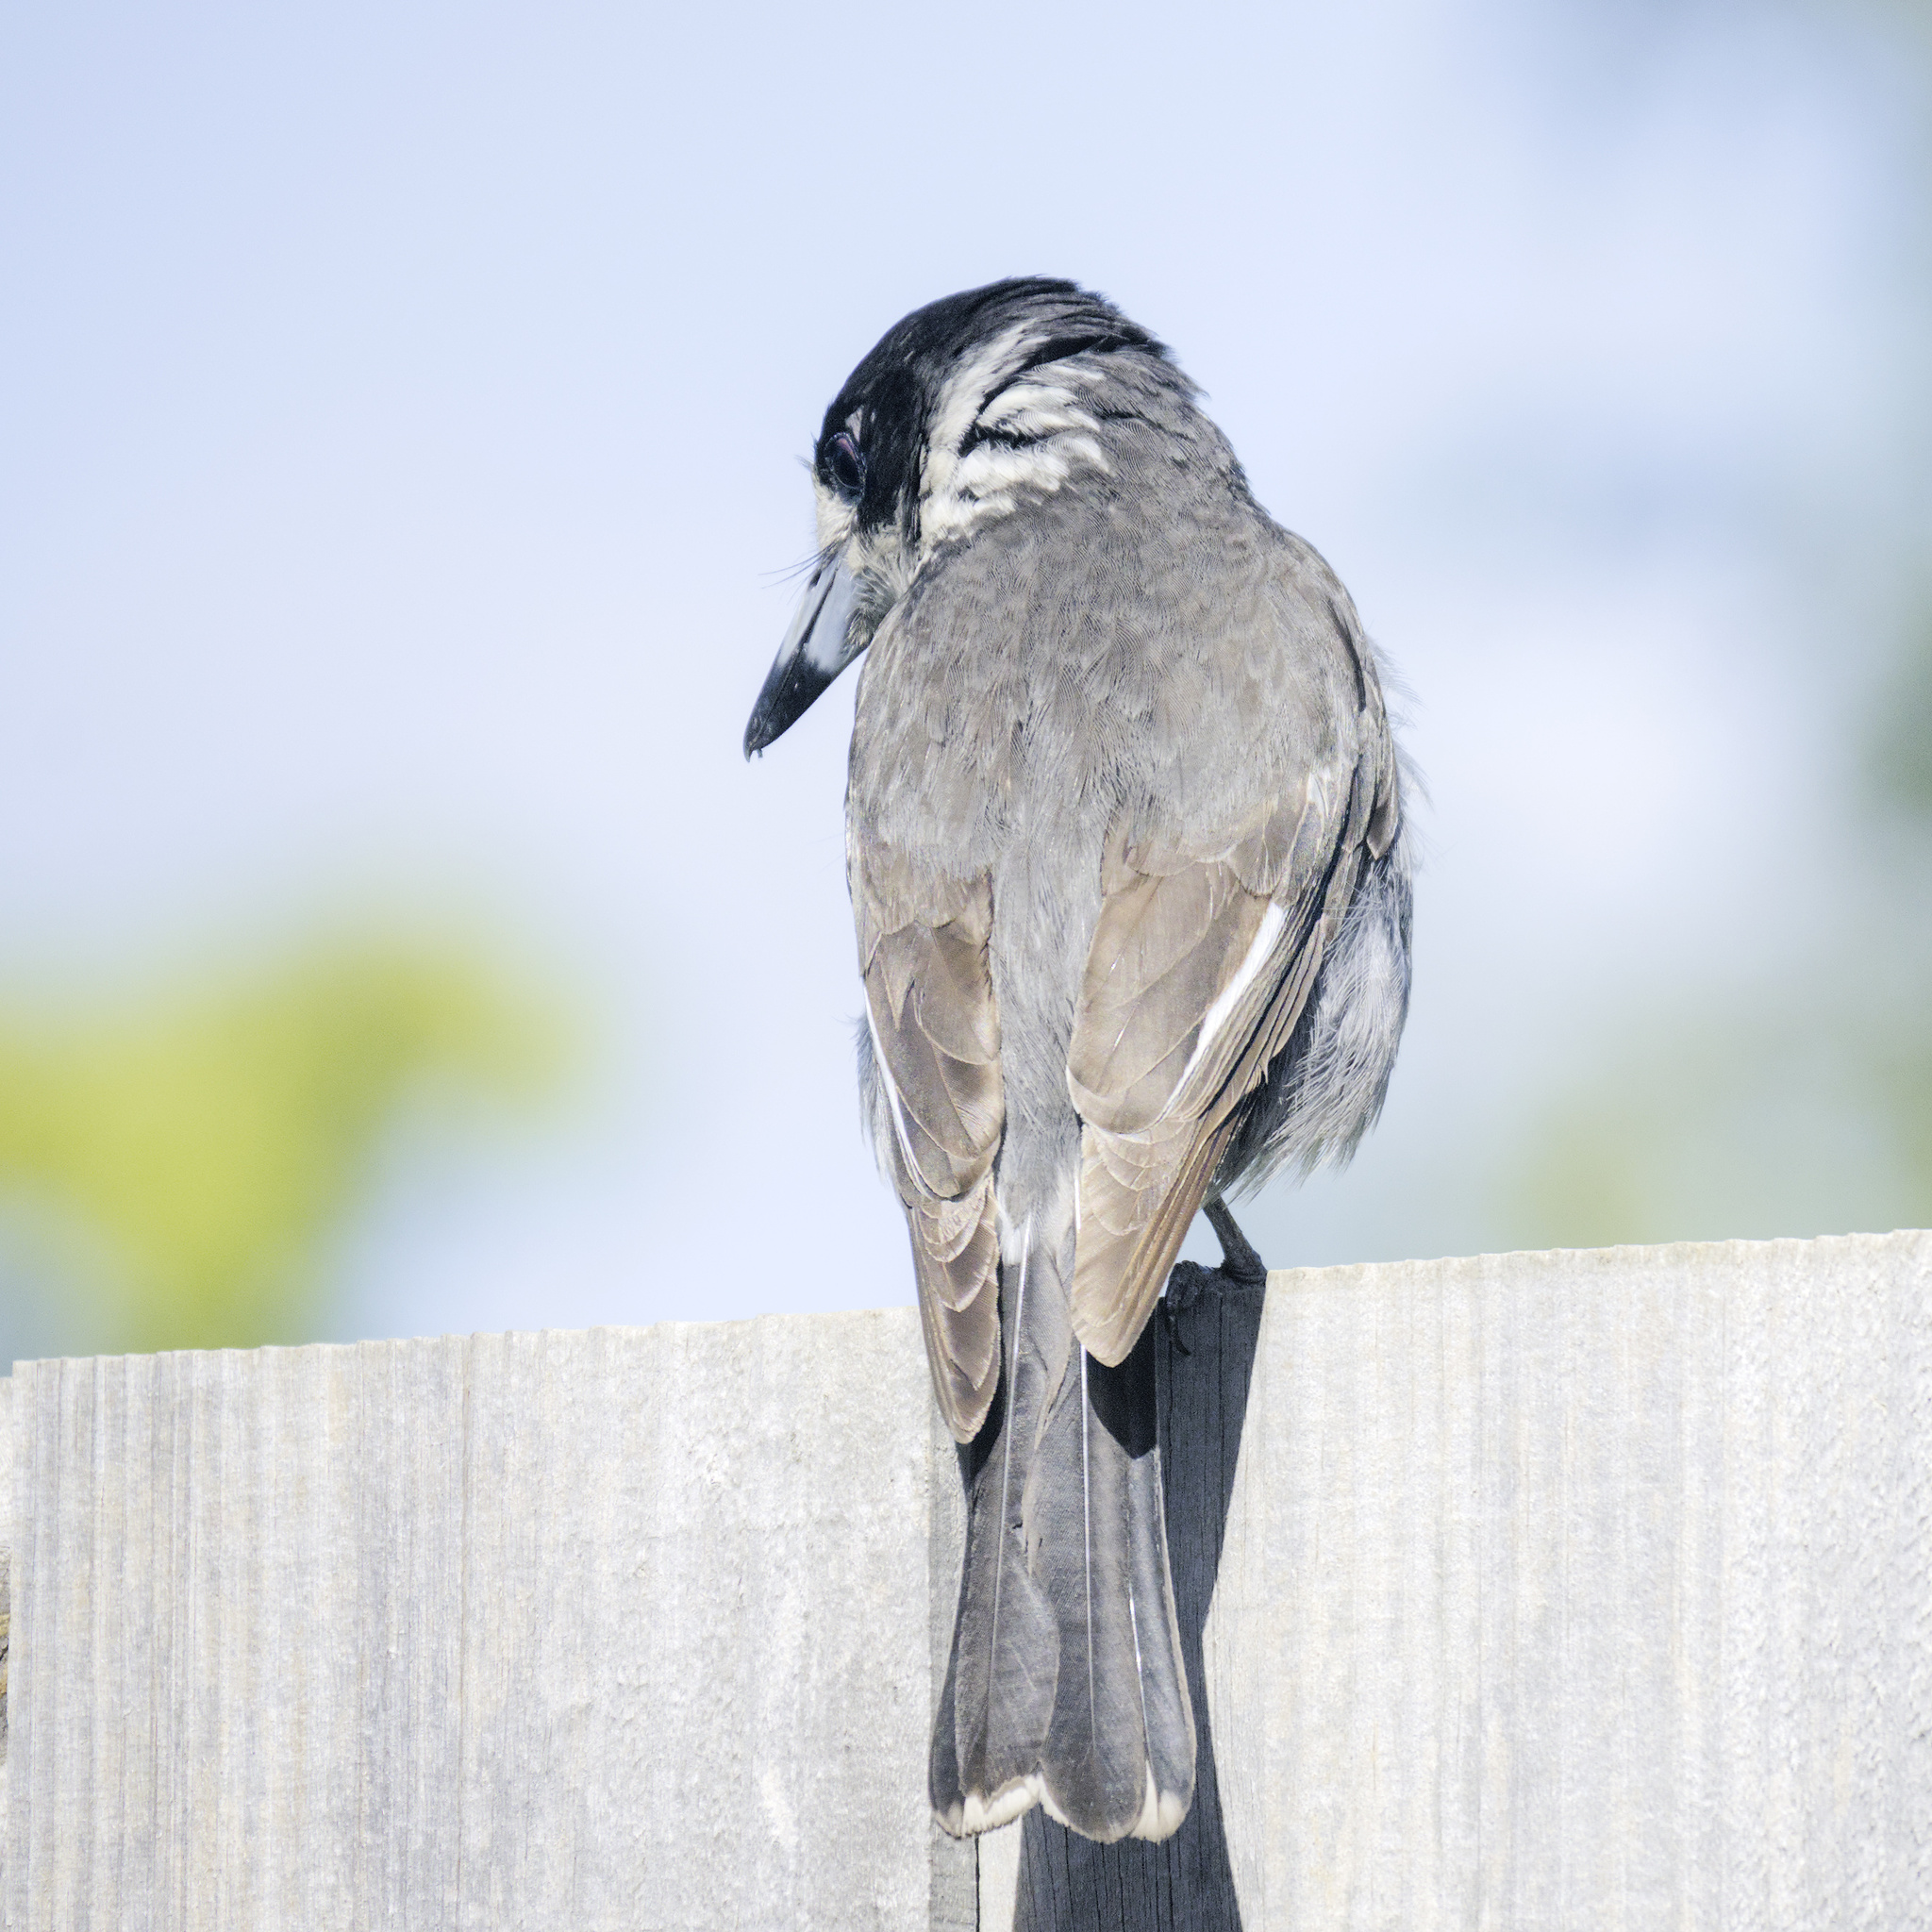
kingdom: Animalia
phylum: Chordata
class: Aves
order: Passeriformes
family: Cracticidae
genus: Cracticus
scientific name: Cracticus torquatus
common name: Grey butcherbird
